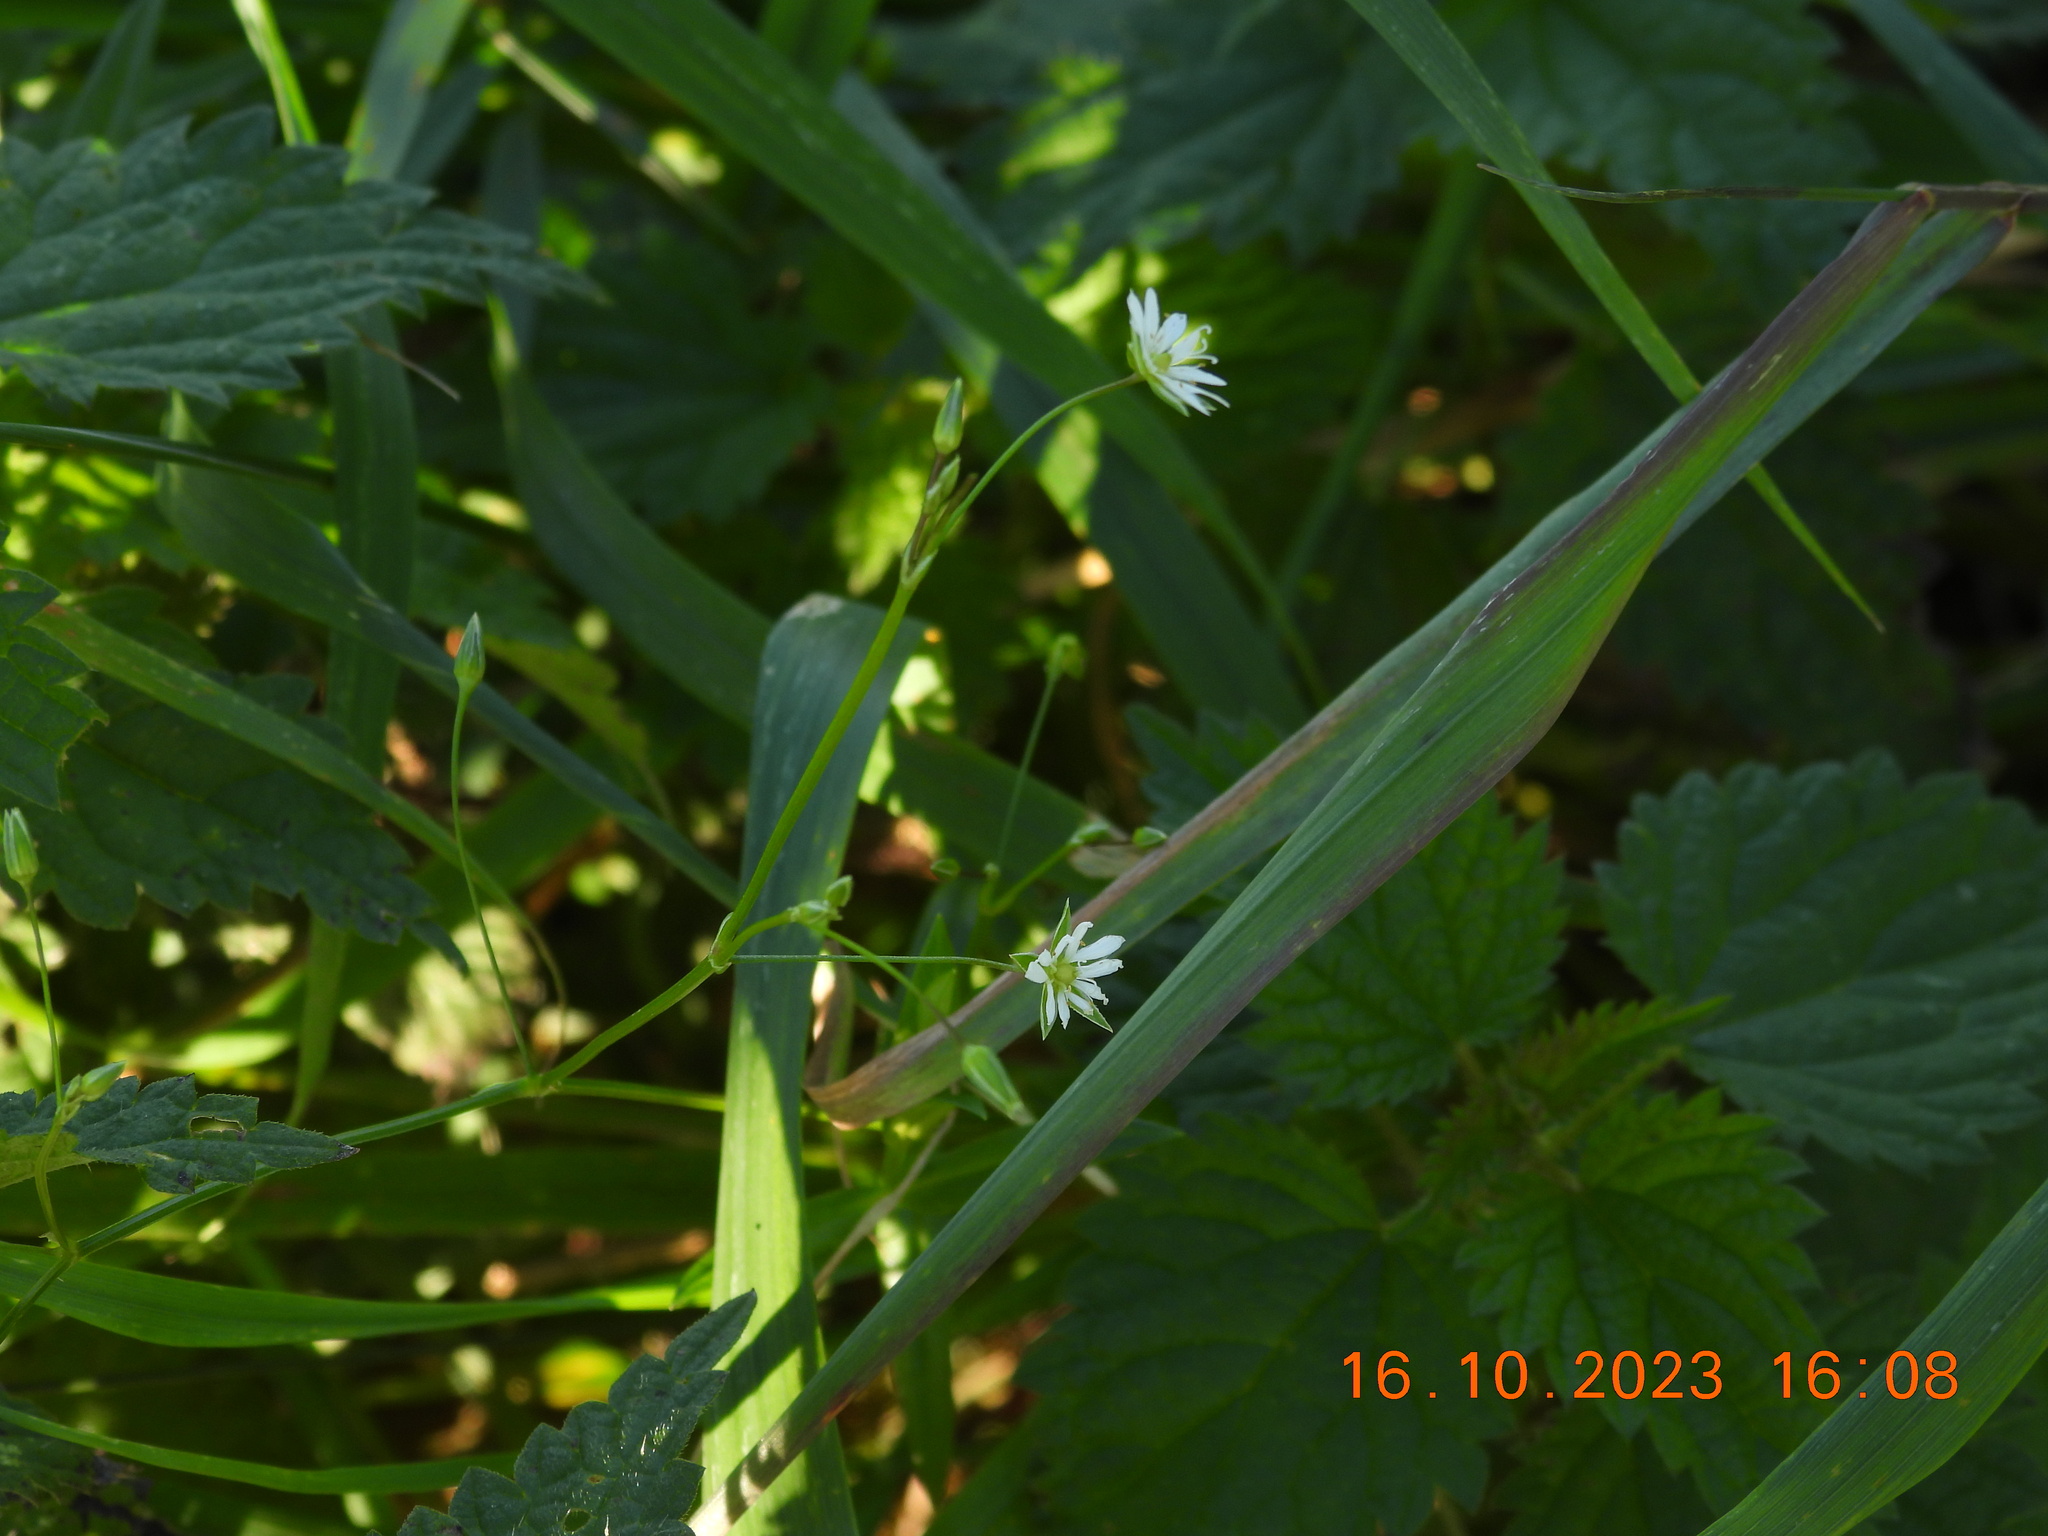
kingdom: Plantae
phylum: Tracheophyta
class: Magnoliopsida
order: Caryophyllales
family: Caryophyllaceae
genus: Stellaria
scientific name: Stellaria graminea
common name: Grass-like starwort
